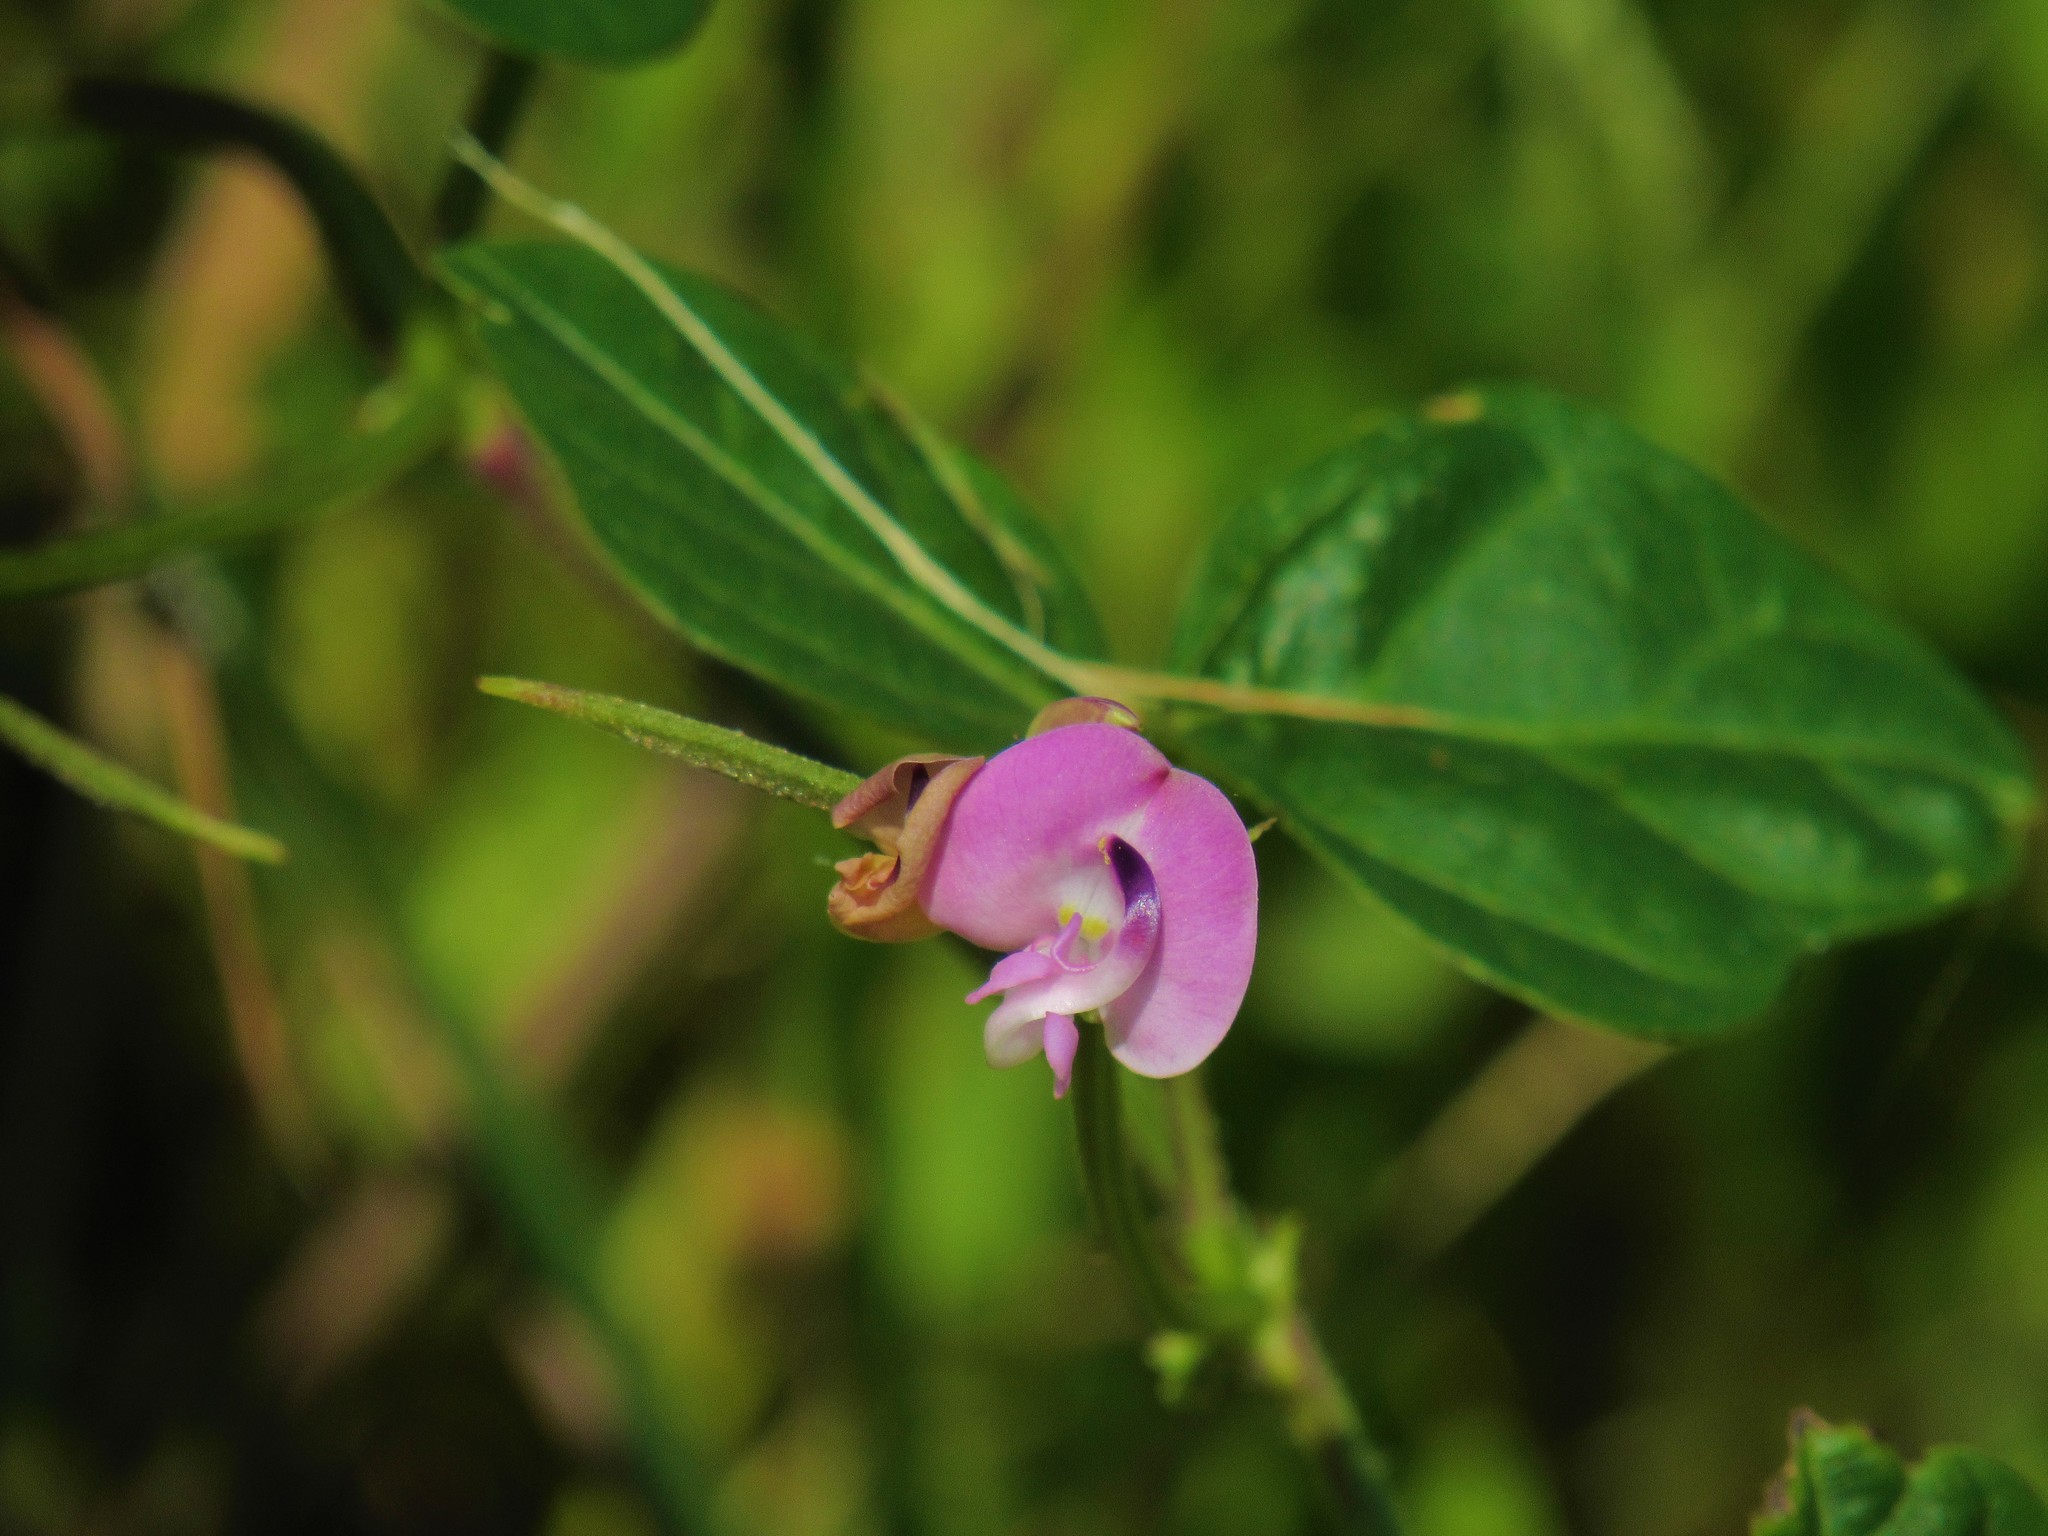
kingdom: Plantae
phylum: Tracheophyta
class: Magnoliopsida
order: Fabales
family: Fabaceae
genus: Strophostyles
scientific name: Strophostyles helvola
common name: Trailing wild bean
